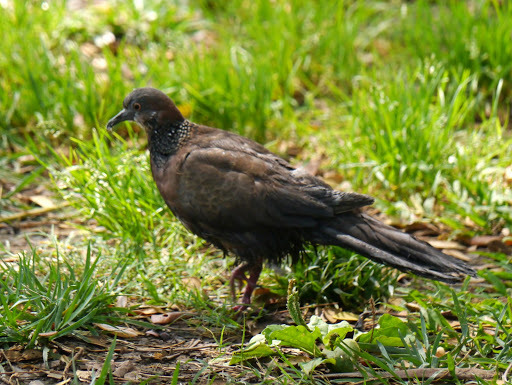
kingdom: Animalia
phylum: Chordata
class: Aves
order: Columbiformes
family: Columbidae
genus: Spilopelia
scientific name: Spilopelia chinensis
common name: Spotted dove
